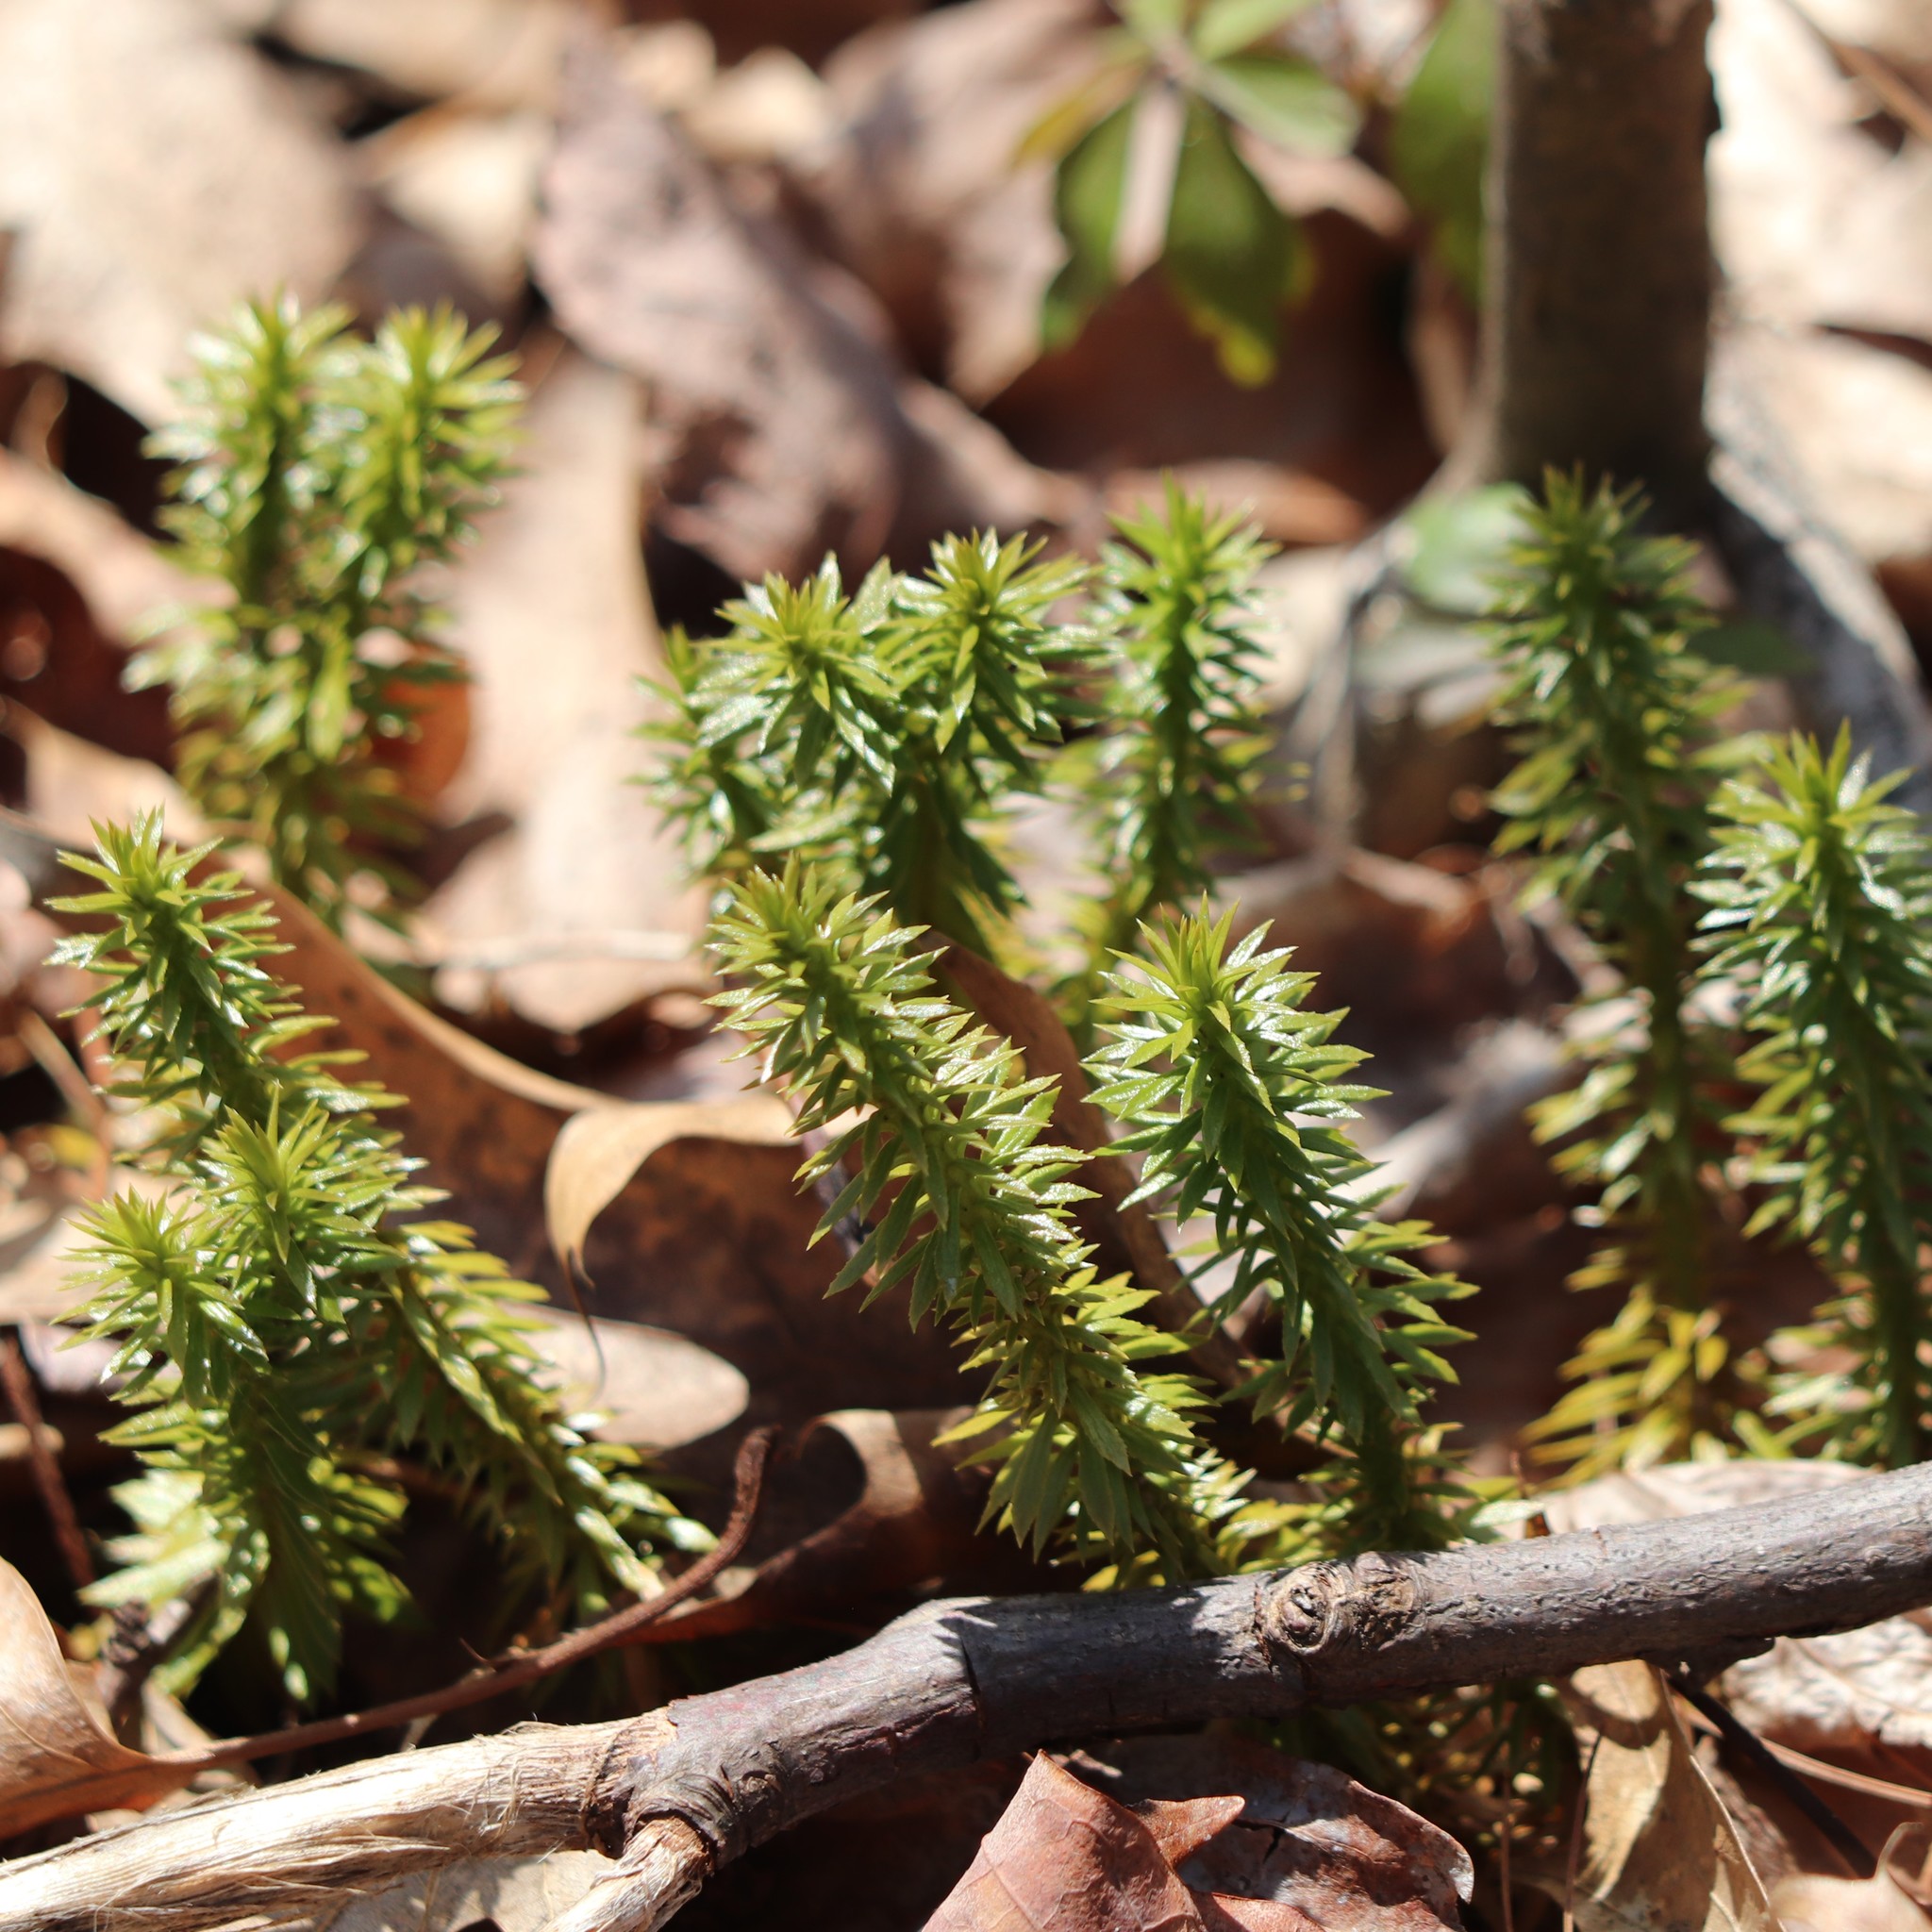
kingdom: Plantae
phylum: Tracheophyta
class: Lycopodiopsida
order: Lycopodiales
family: Lycopodiaceae
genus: Huperzia
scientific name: Huperzia lucidula
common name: Shining clubmoss
